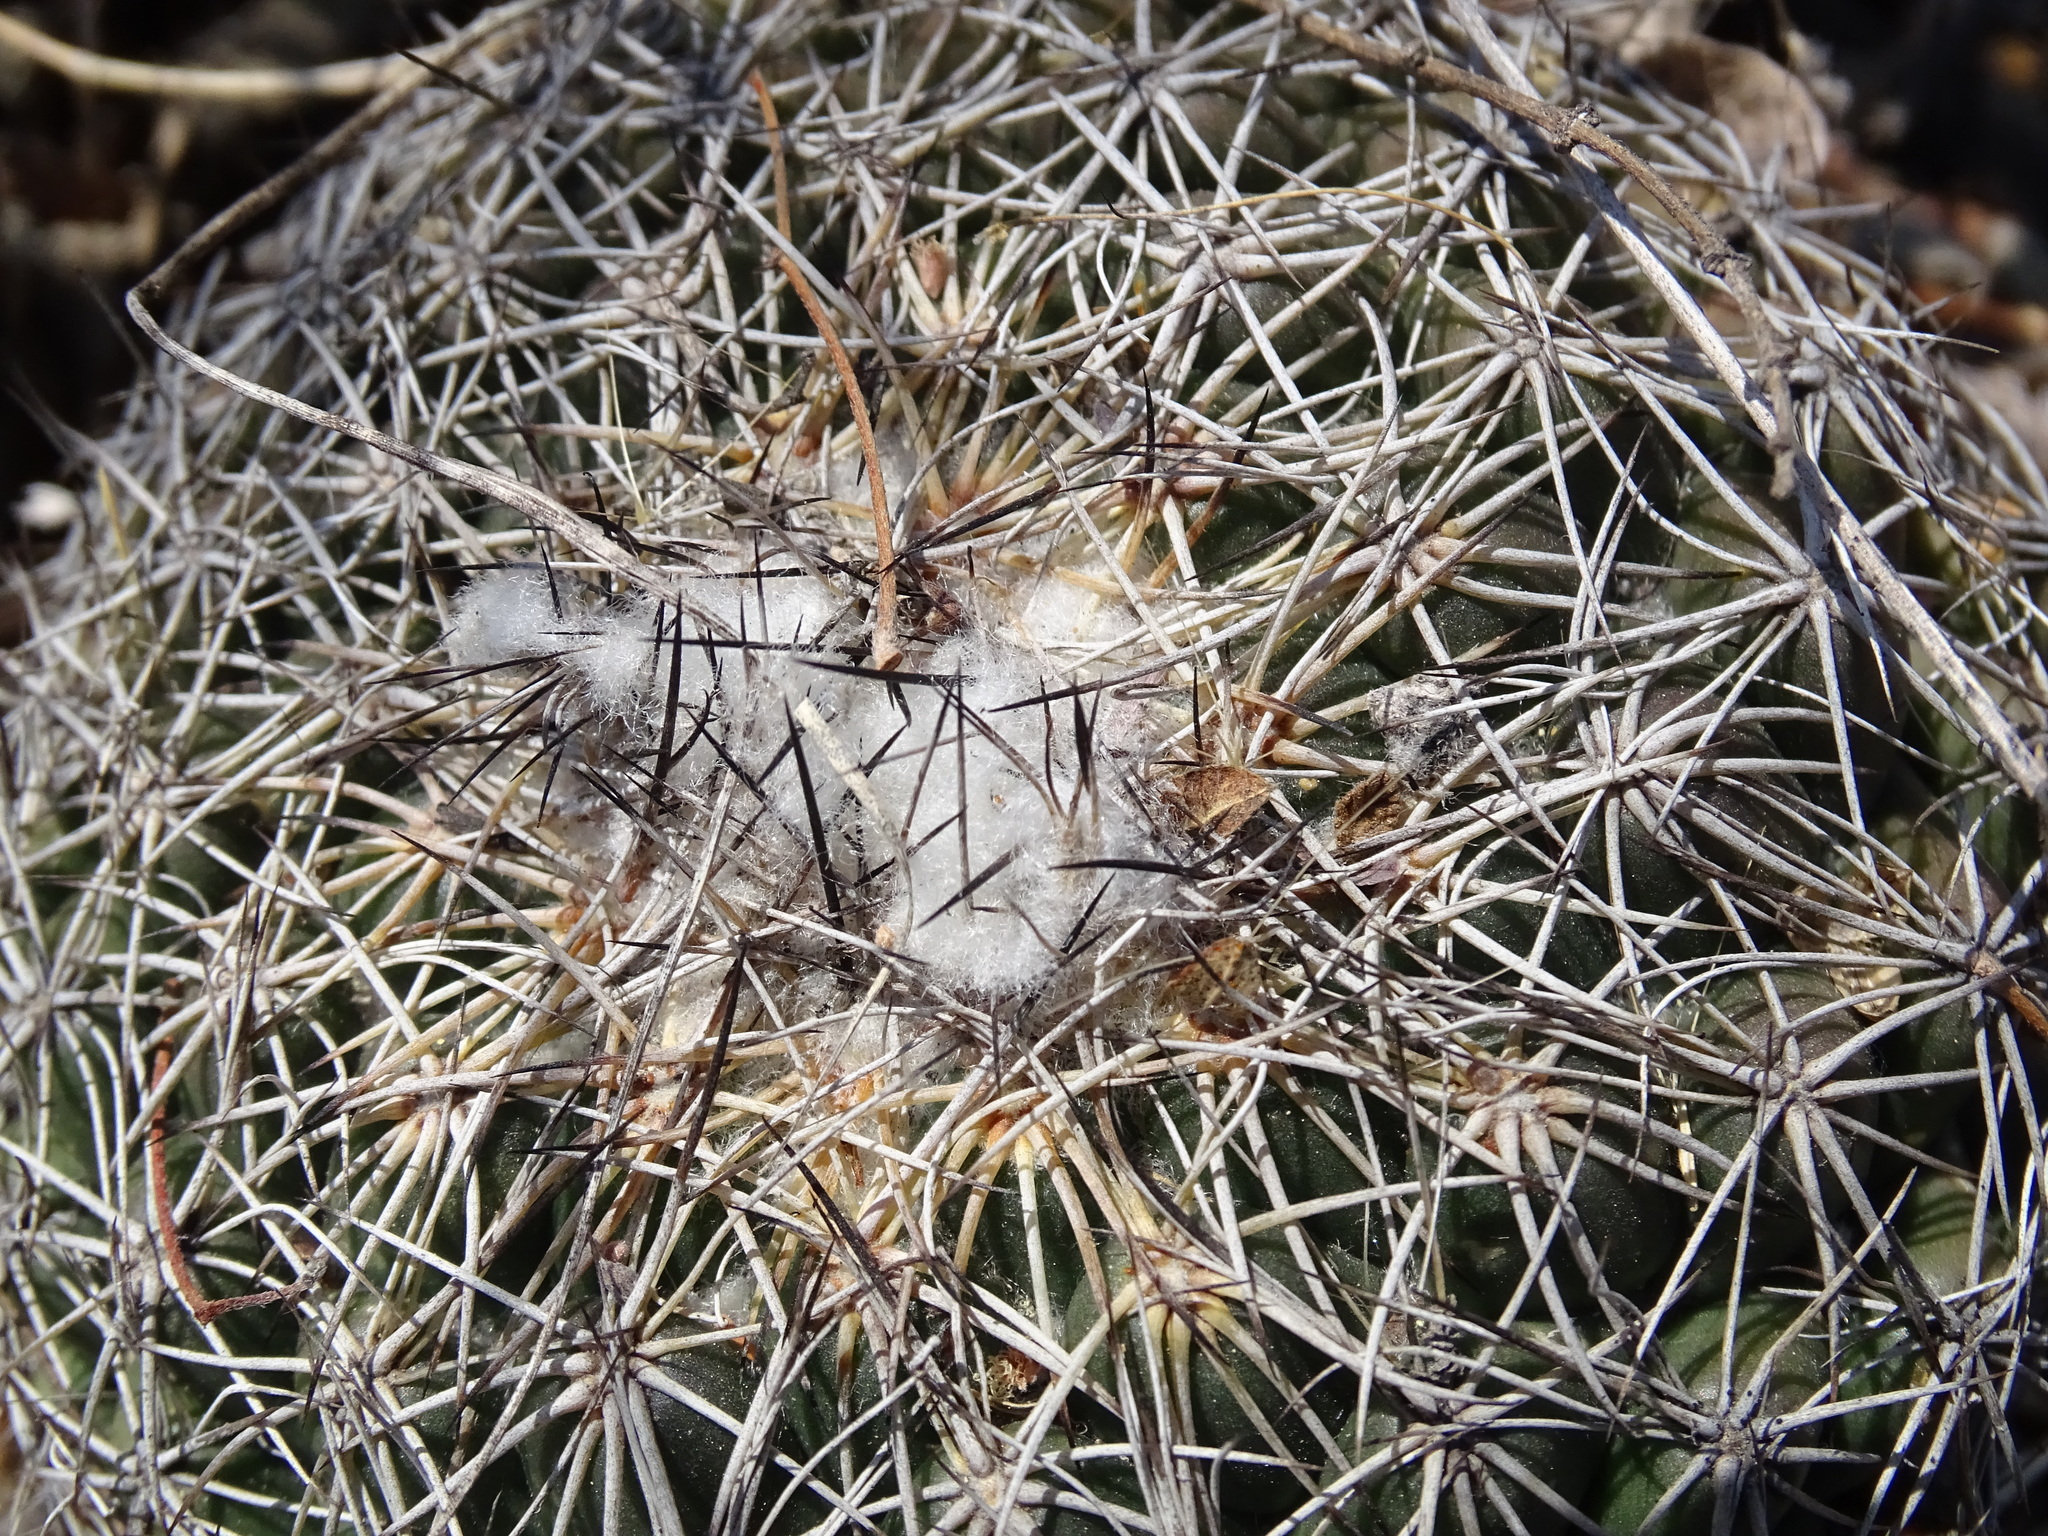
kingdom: Plantae
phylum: Tracheophyta
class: Magnoliopsida
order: Caryophyllales
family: Cactaceae
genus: Coryphantha
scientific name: Coryphantha pallida
